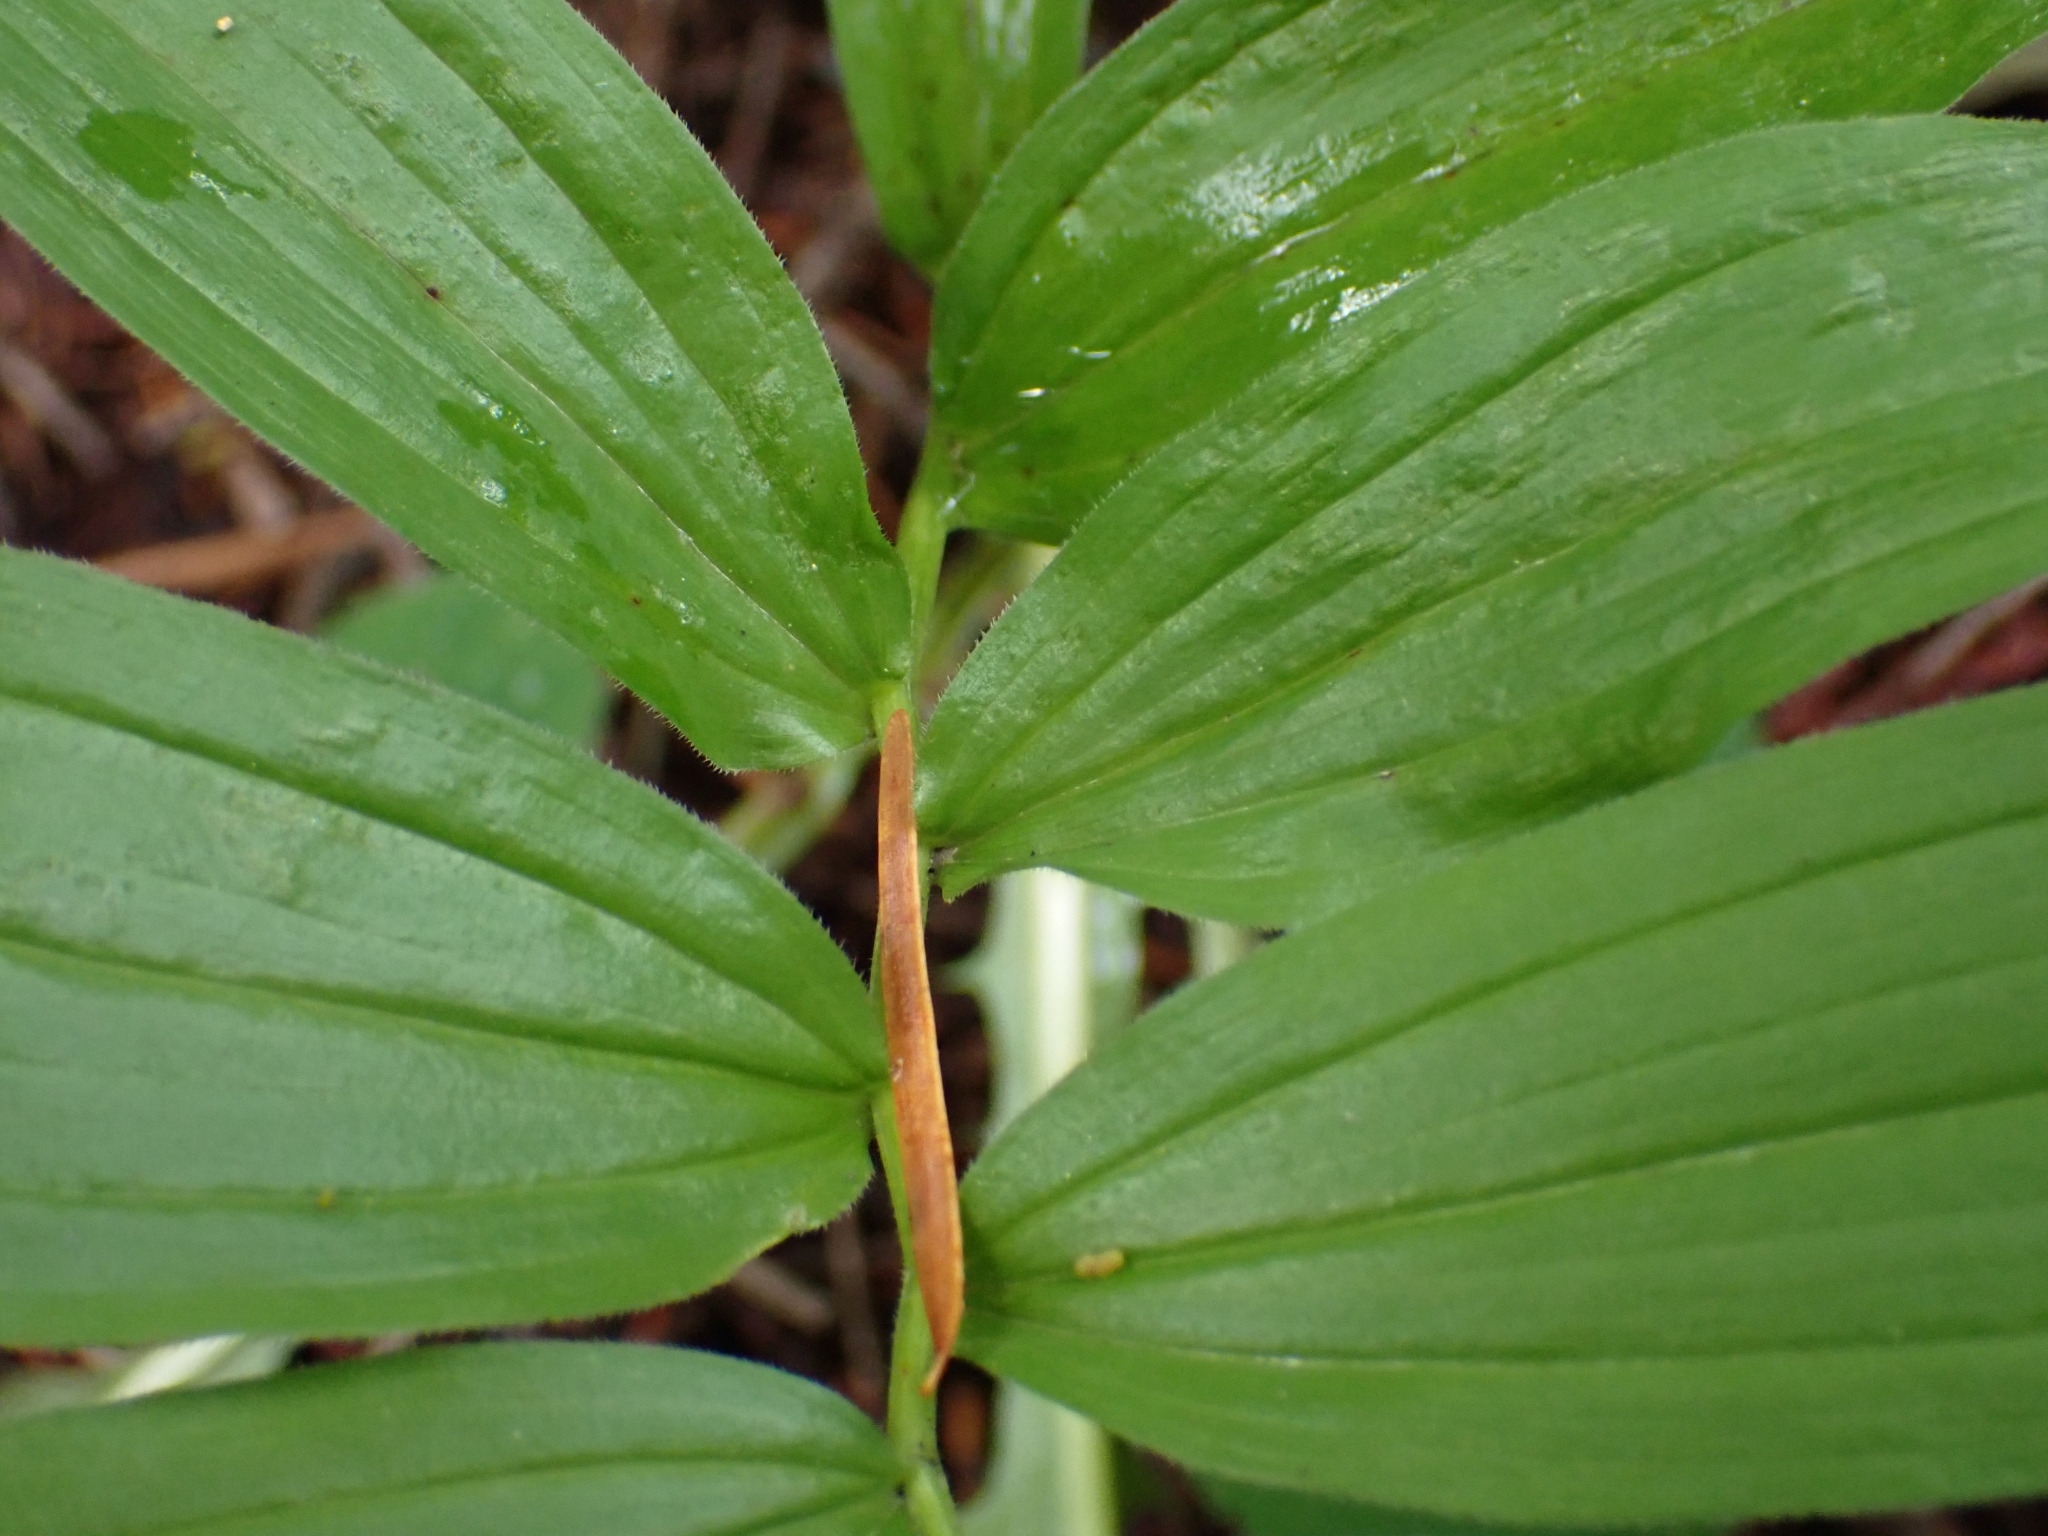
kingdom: Plantae
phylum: Tracheophyta
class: Liliopsida
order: Asparagales
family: Asparagaceae
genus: Maianthemum
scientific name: Maianthemum stellatum
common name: Little false solomon's seal
